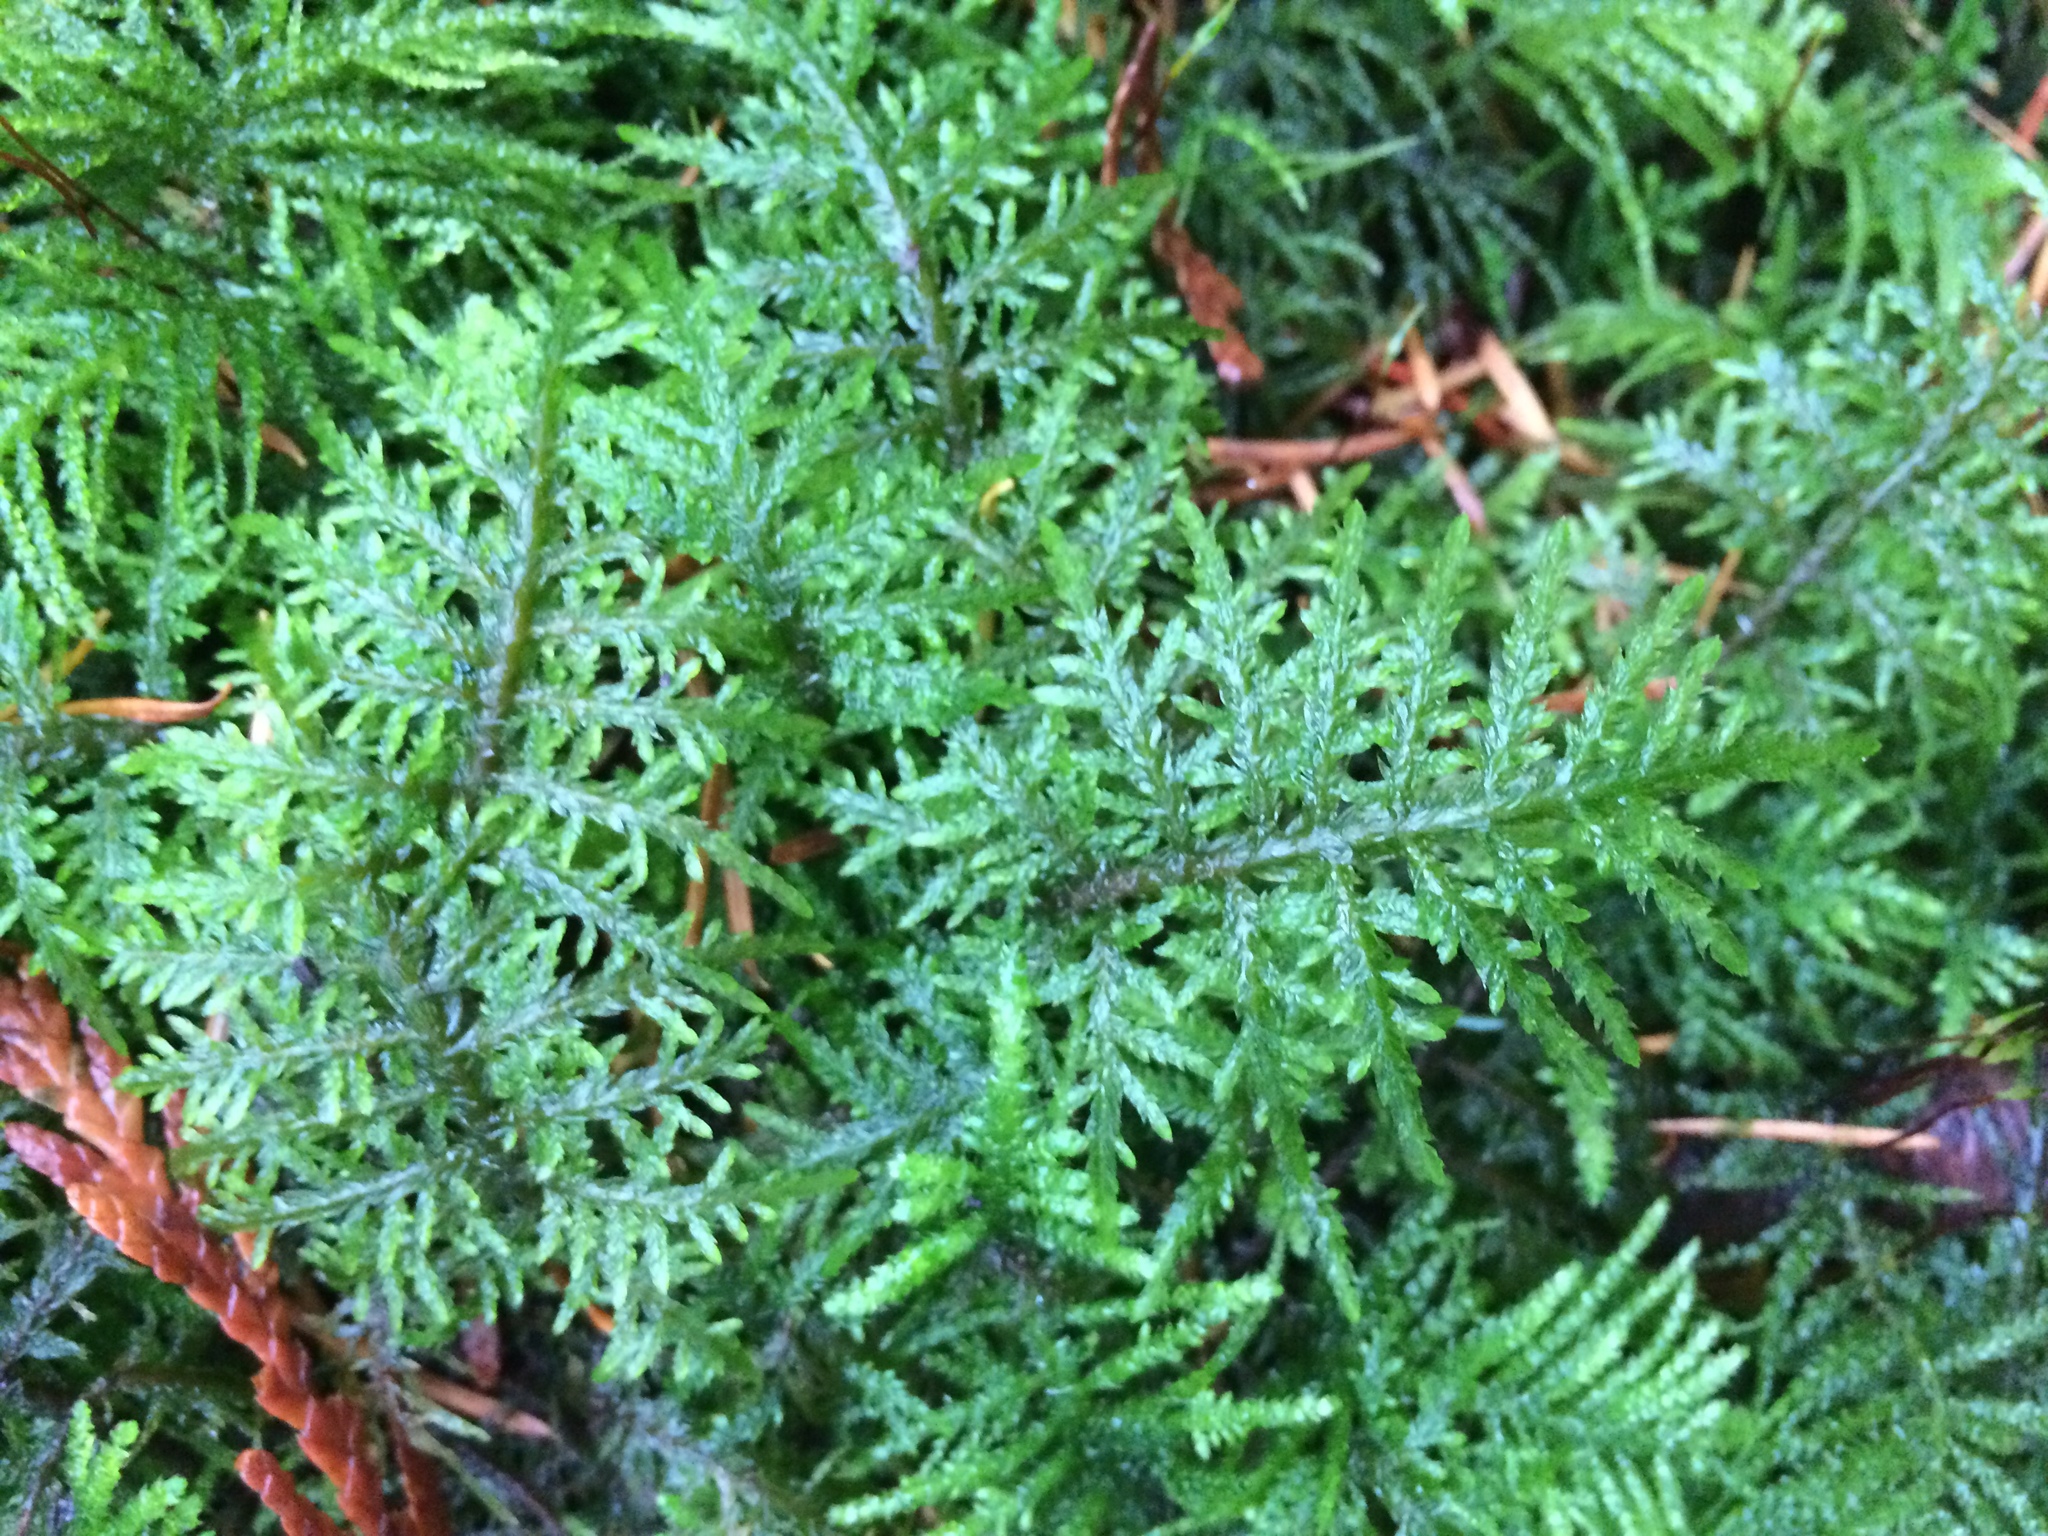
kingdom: Plantae
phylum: Bryophyta
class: Bryopsida
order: Hypnales
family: Hylocomiaceae
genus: Hylocomium
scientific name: Hylocomium splendens
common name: Stairstep moss
